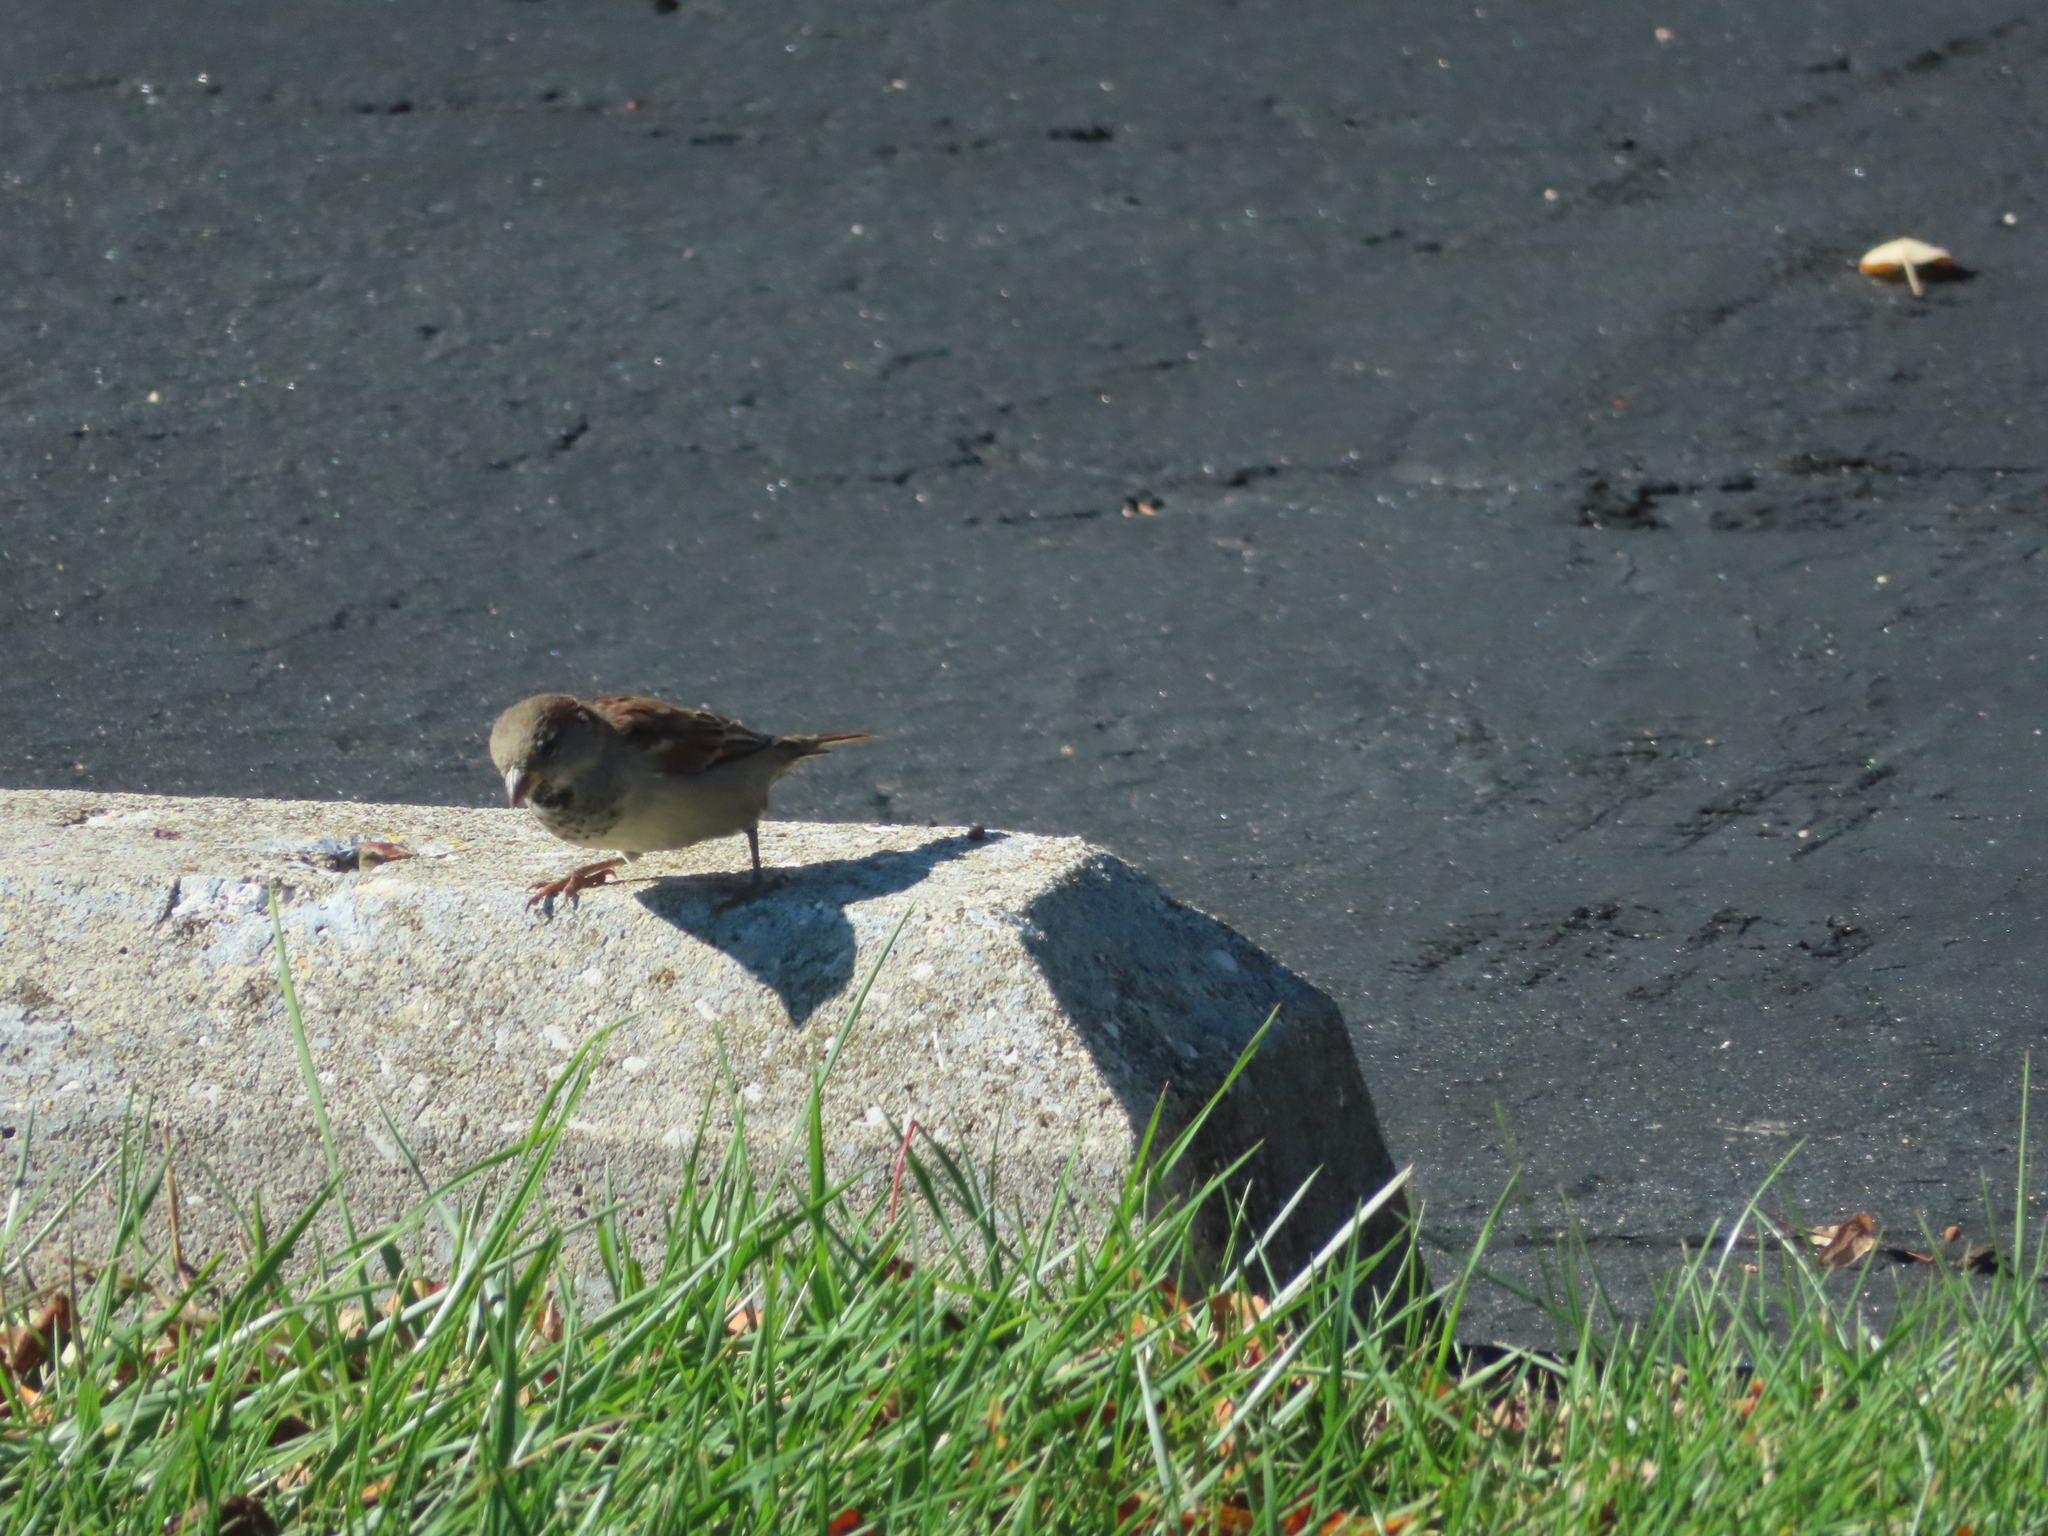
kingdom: Animalia
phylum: Chordata
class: Aves
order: Passeriformes
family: Passeridae
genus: Passer
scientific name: Passer domesticus
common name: House sparrow
